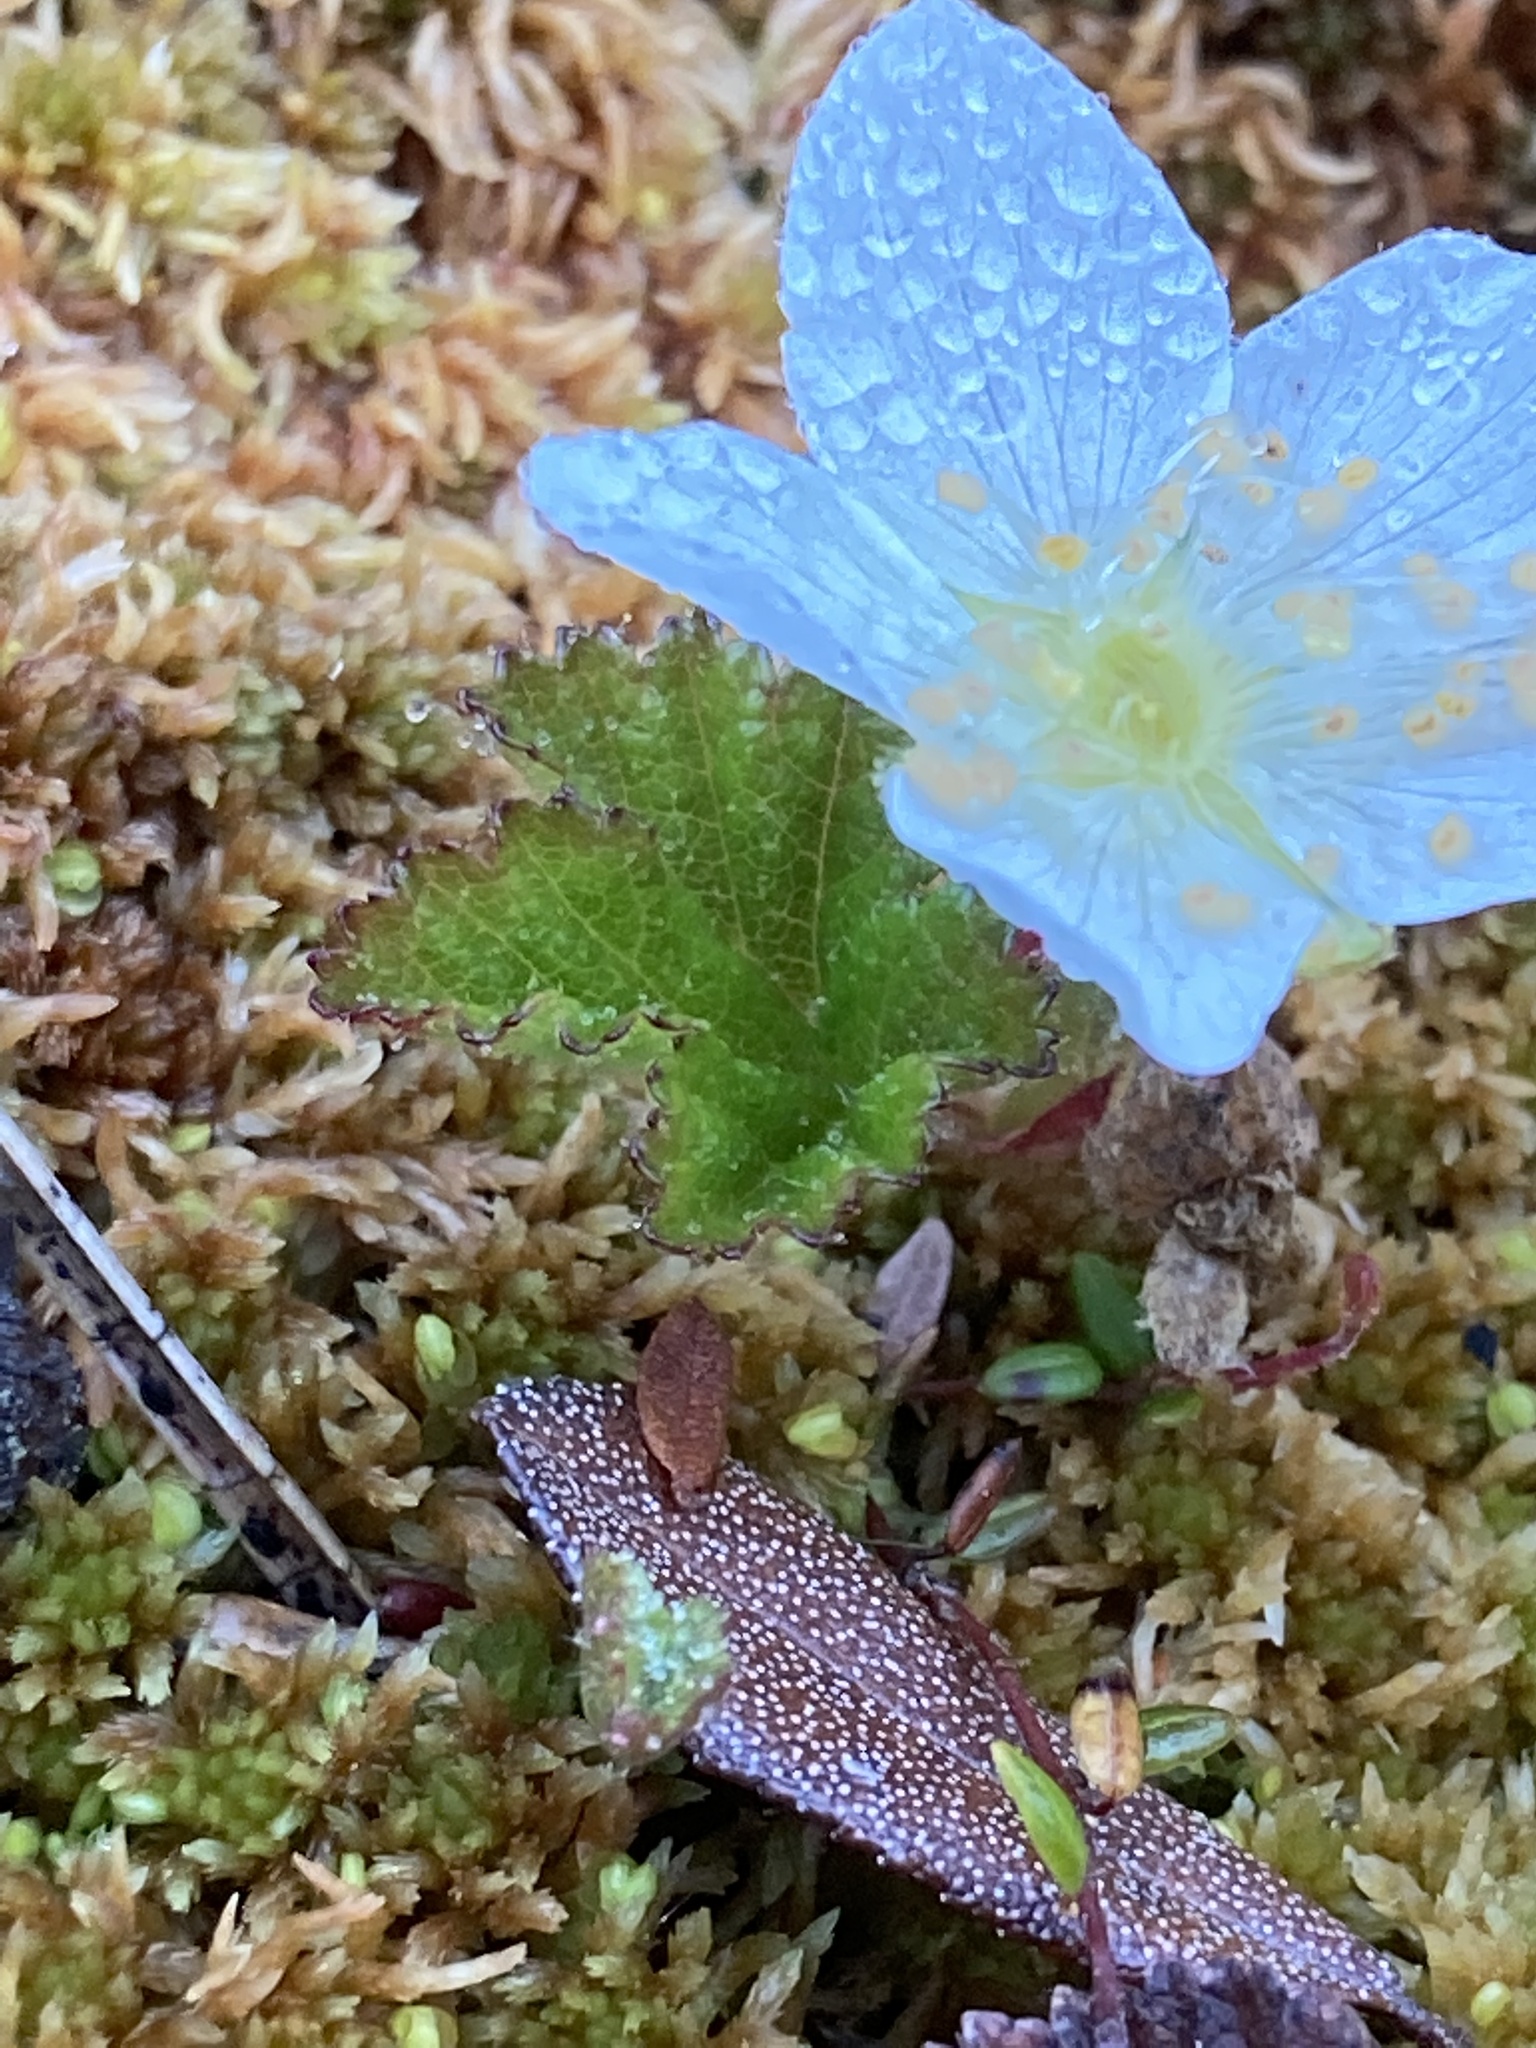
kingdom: Plantae
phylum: Tracheophyta
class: Magnoliopsida
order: Rosales
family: Rosaceae
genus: Rubus
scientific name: Rubus chamaemorus
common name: Cloudberry
